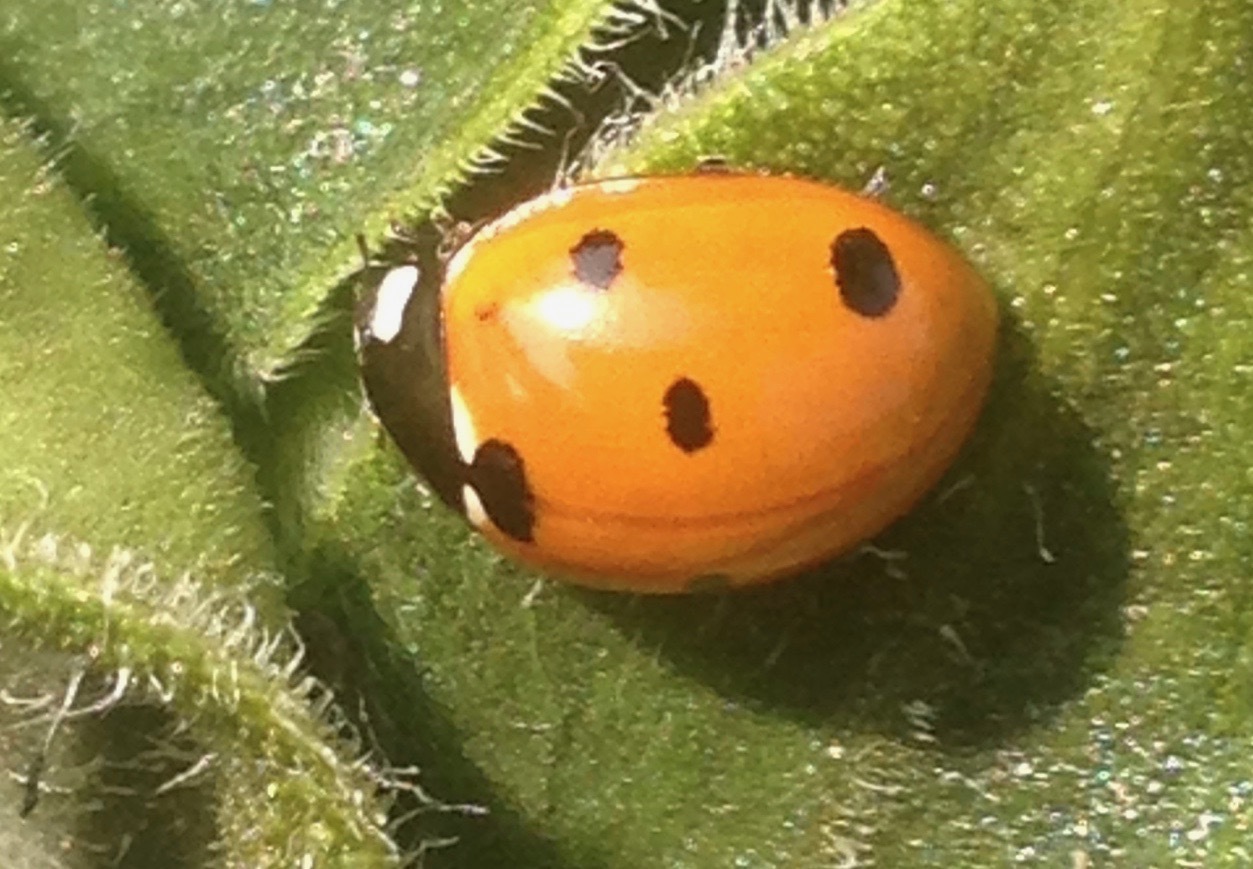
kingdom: Animalia
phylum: Arthropoda
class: Insecta
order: Coleoptera
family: Coccinellidae
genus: Coccinella
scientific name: Coccinella septempunctata
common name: Sevenspotted lady beetle
